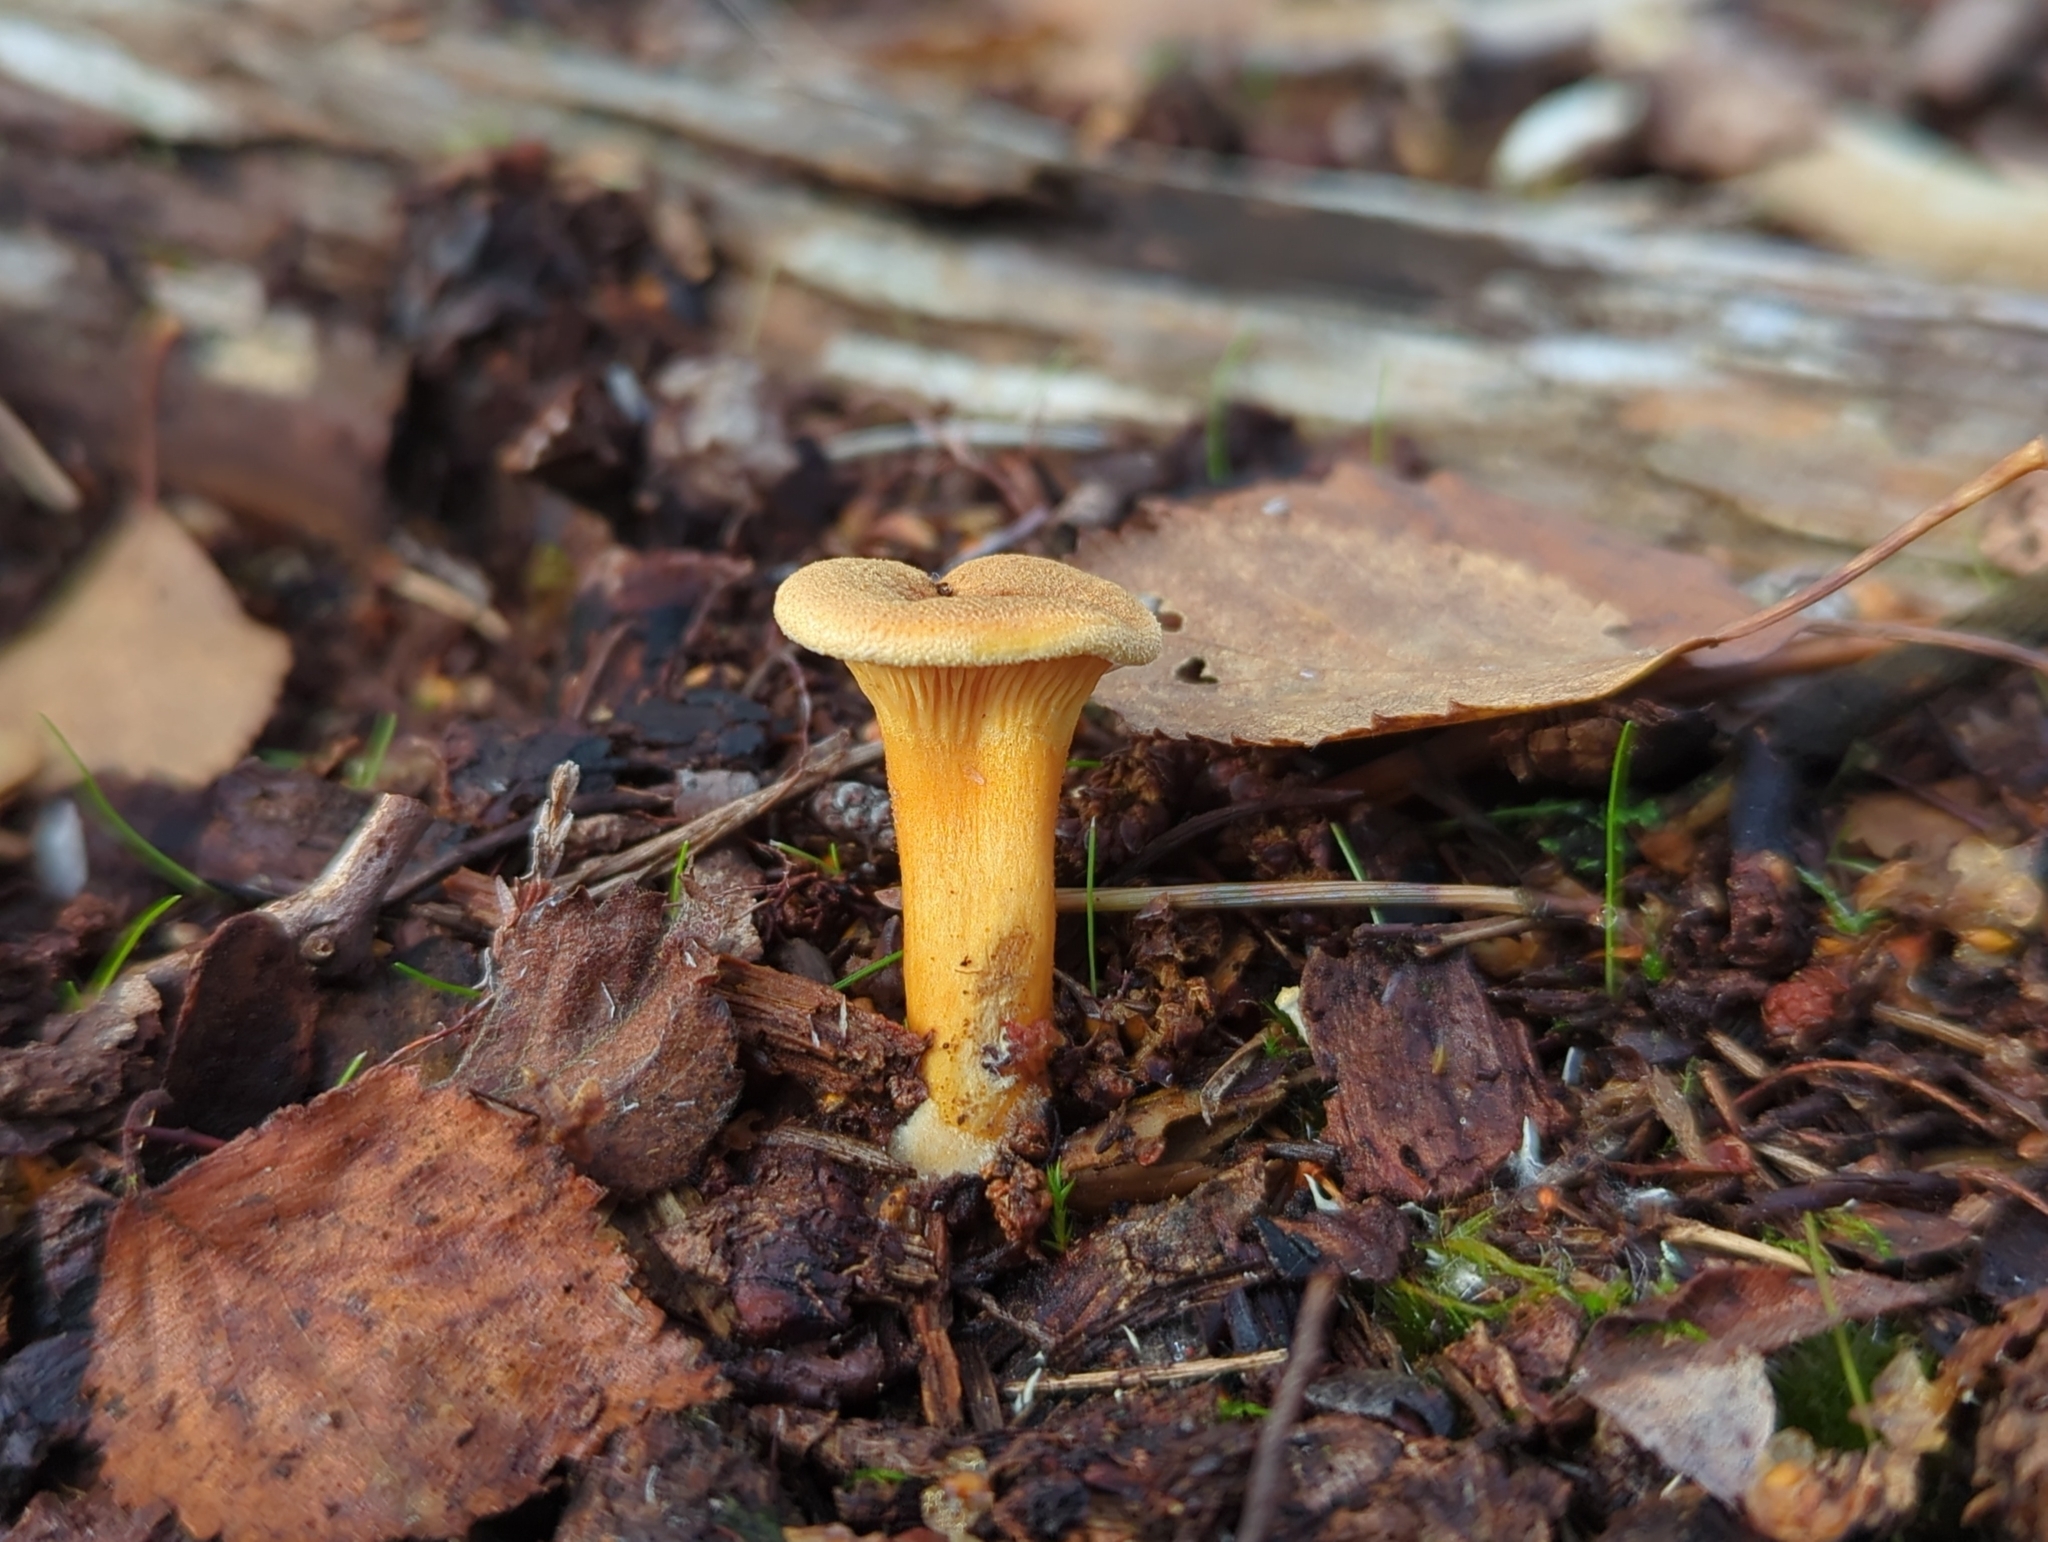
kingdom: Fungi
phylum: Basidiomycota
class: Agaricomycetes
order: Boletales
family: Hygrophoropsidaceae
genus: Hygrophoropsis
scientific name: Hygrophoropsis aurantiaca
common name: False chanterelle
